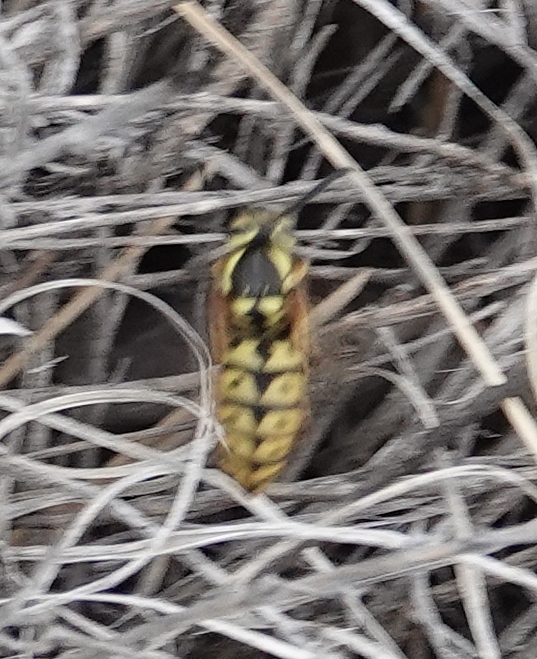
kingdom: Animalia
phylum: Arthropoda
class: Insecta
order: Hymenoptera
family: Vespidae
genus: Vespula
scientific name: Vespula pensylvanica
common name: Western yellowjacket
